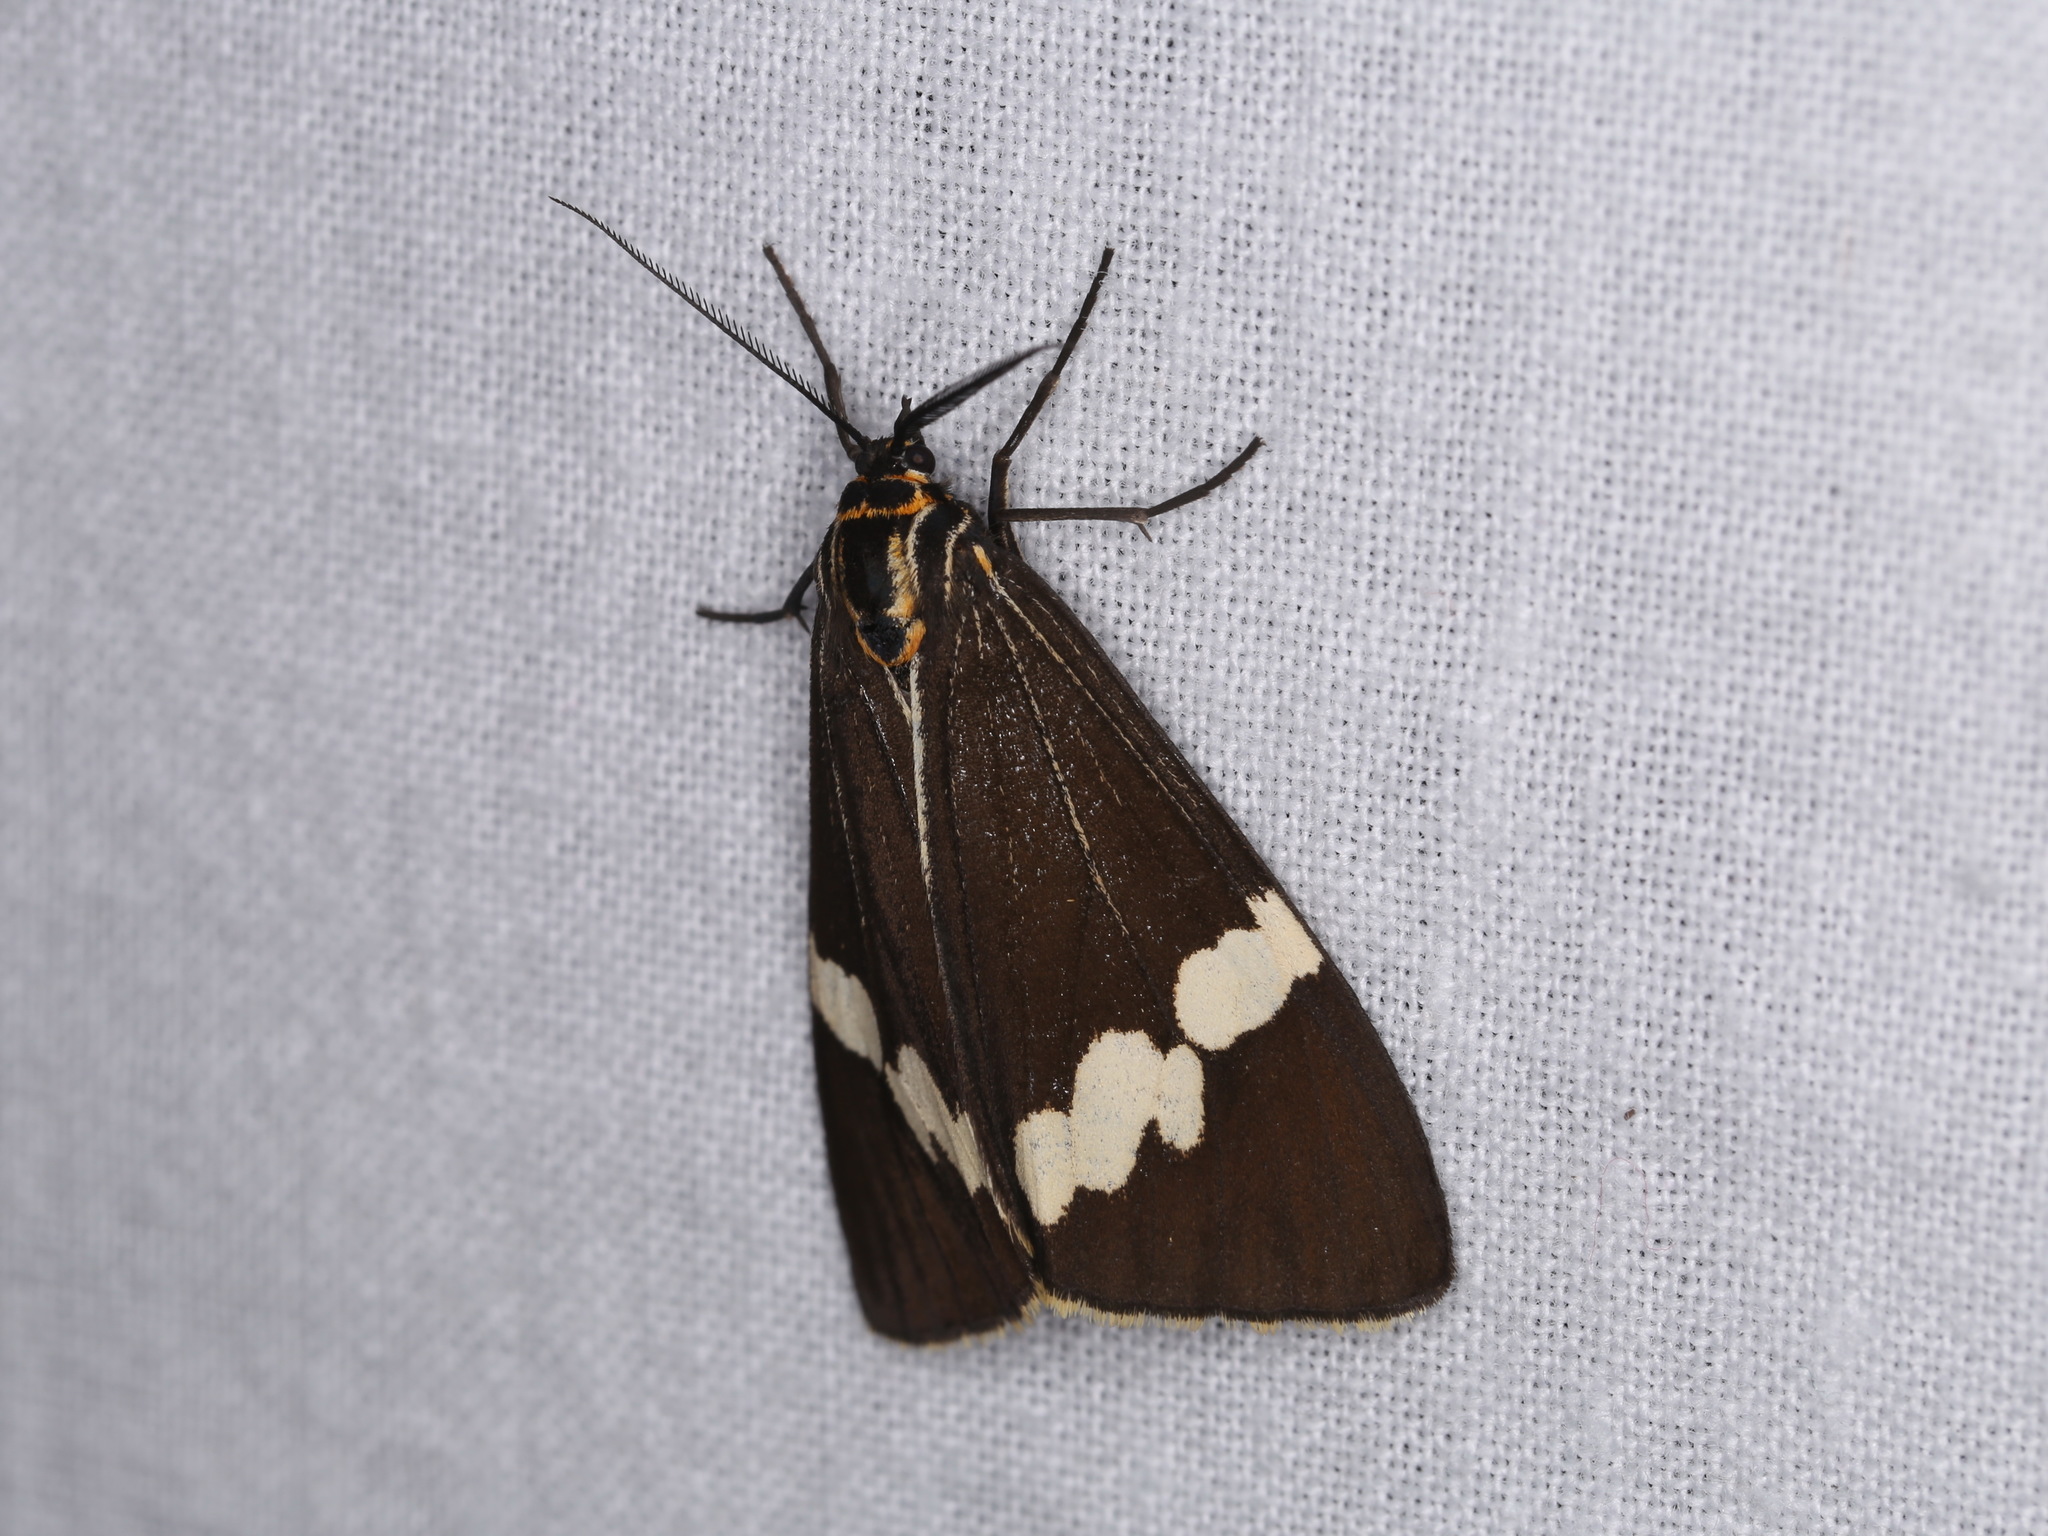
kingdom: Animalia
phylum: Arthropoda
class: Insecta
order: Lepidoptera
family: Erebidae
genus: Nyctemera
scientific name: Nyctemera amicus
